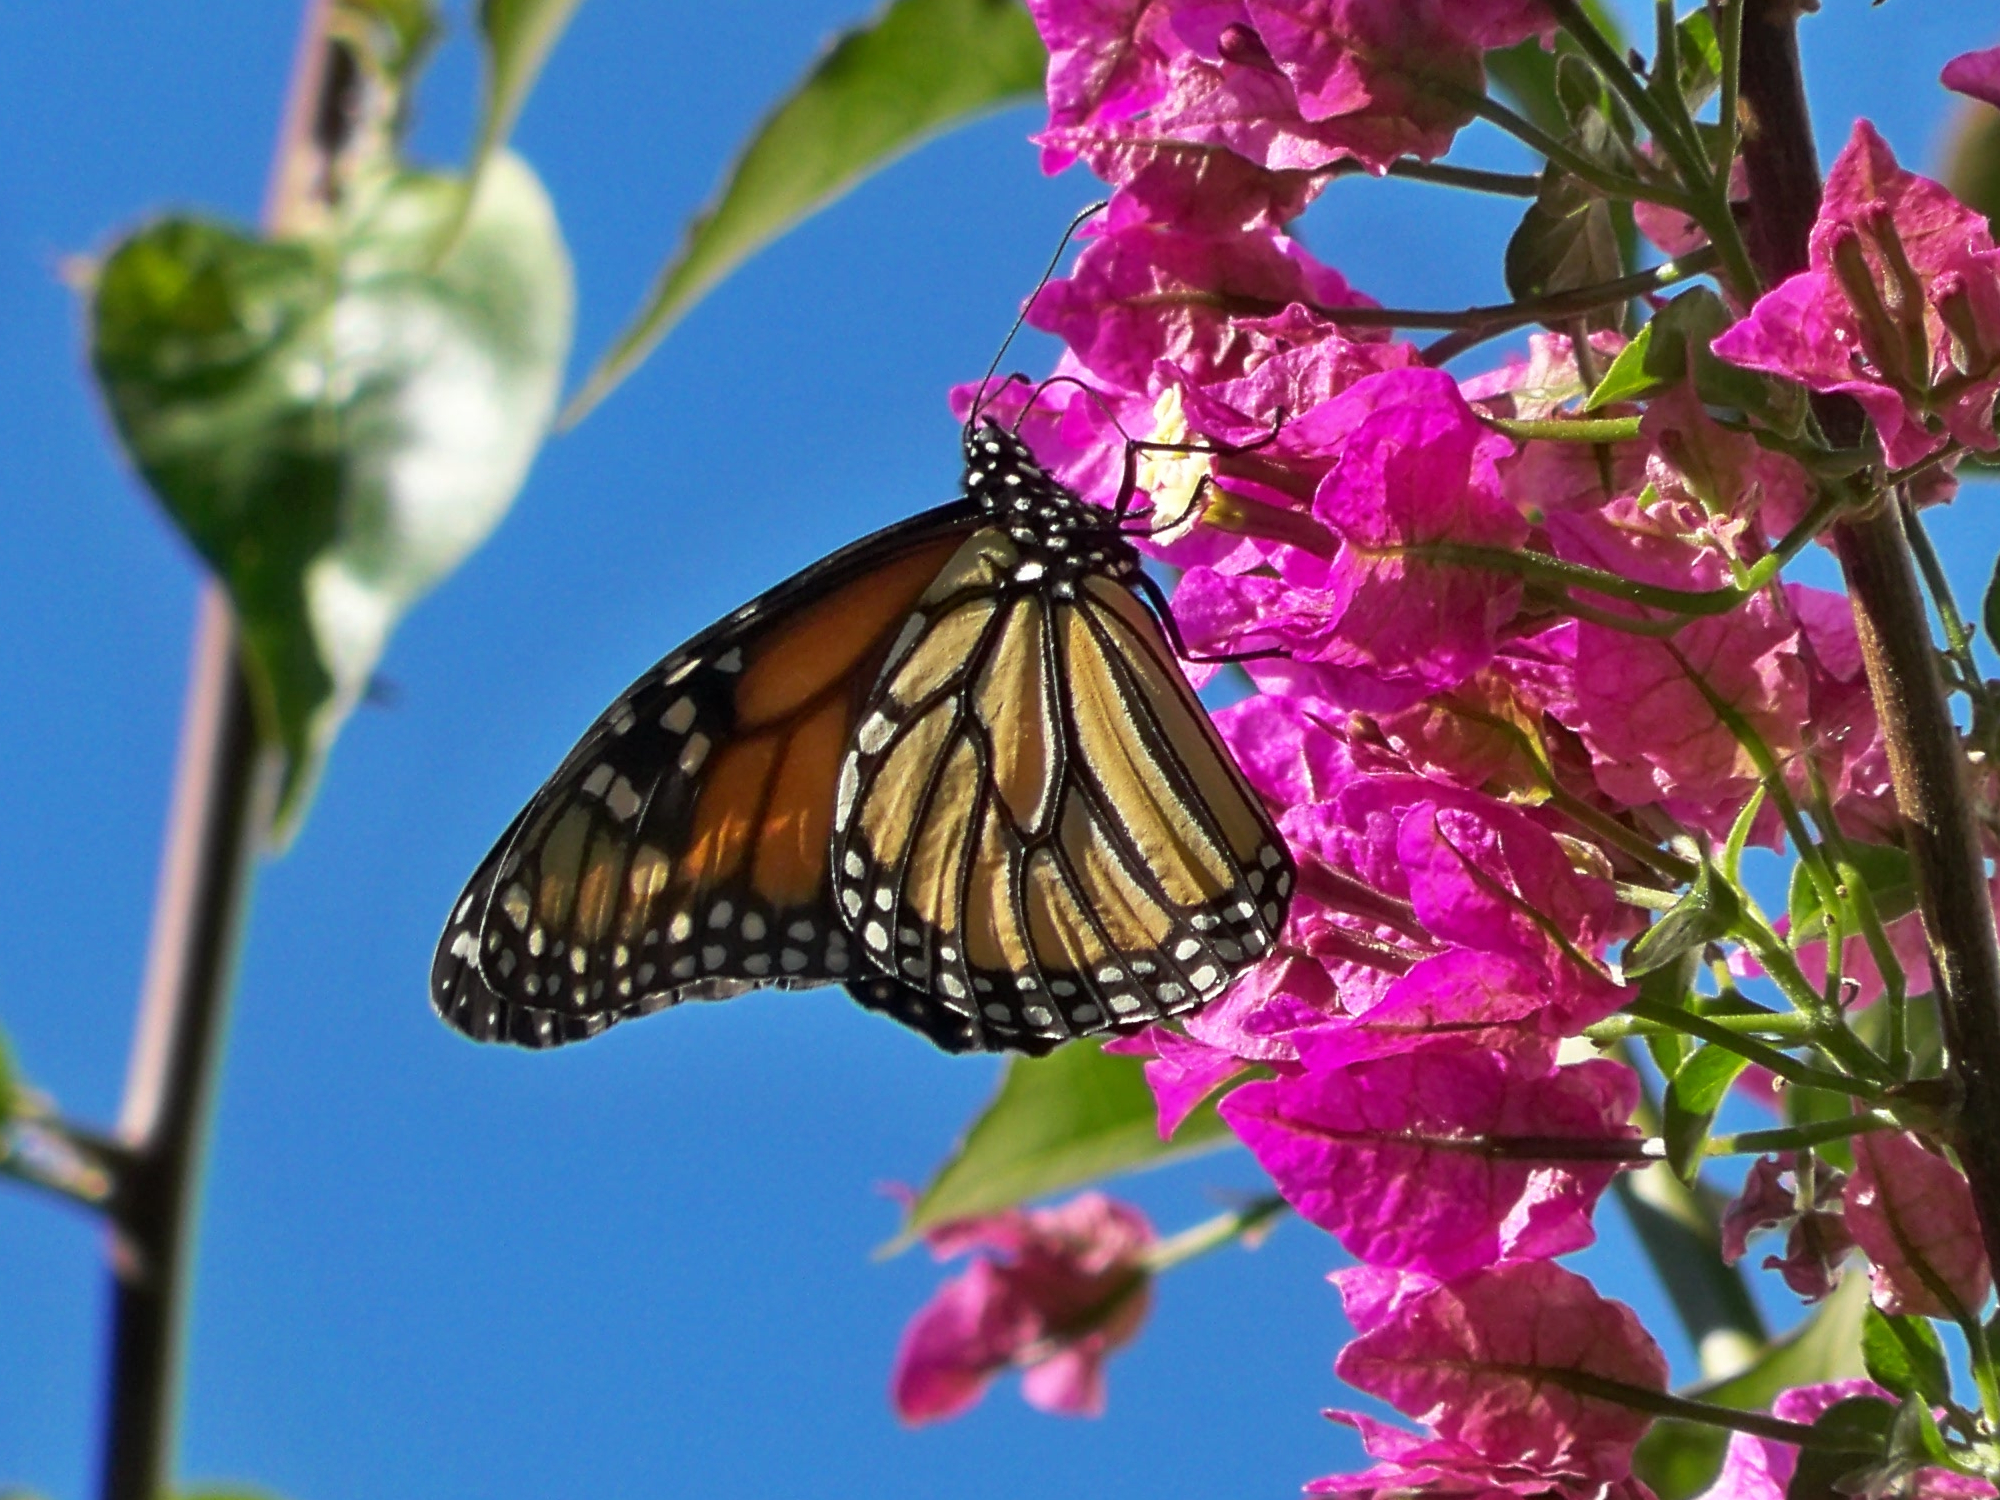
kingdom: Animalia
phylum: Arthropoda
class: Insecta
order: Lepidoptera
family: Nymphalidae
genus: Danaus
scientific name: Danaus plexippus
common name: Monarch
